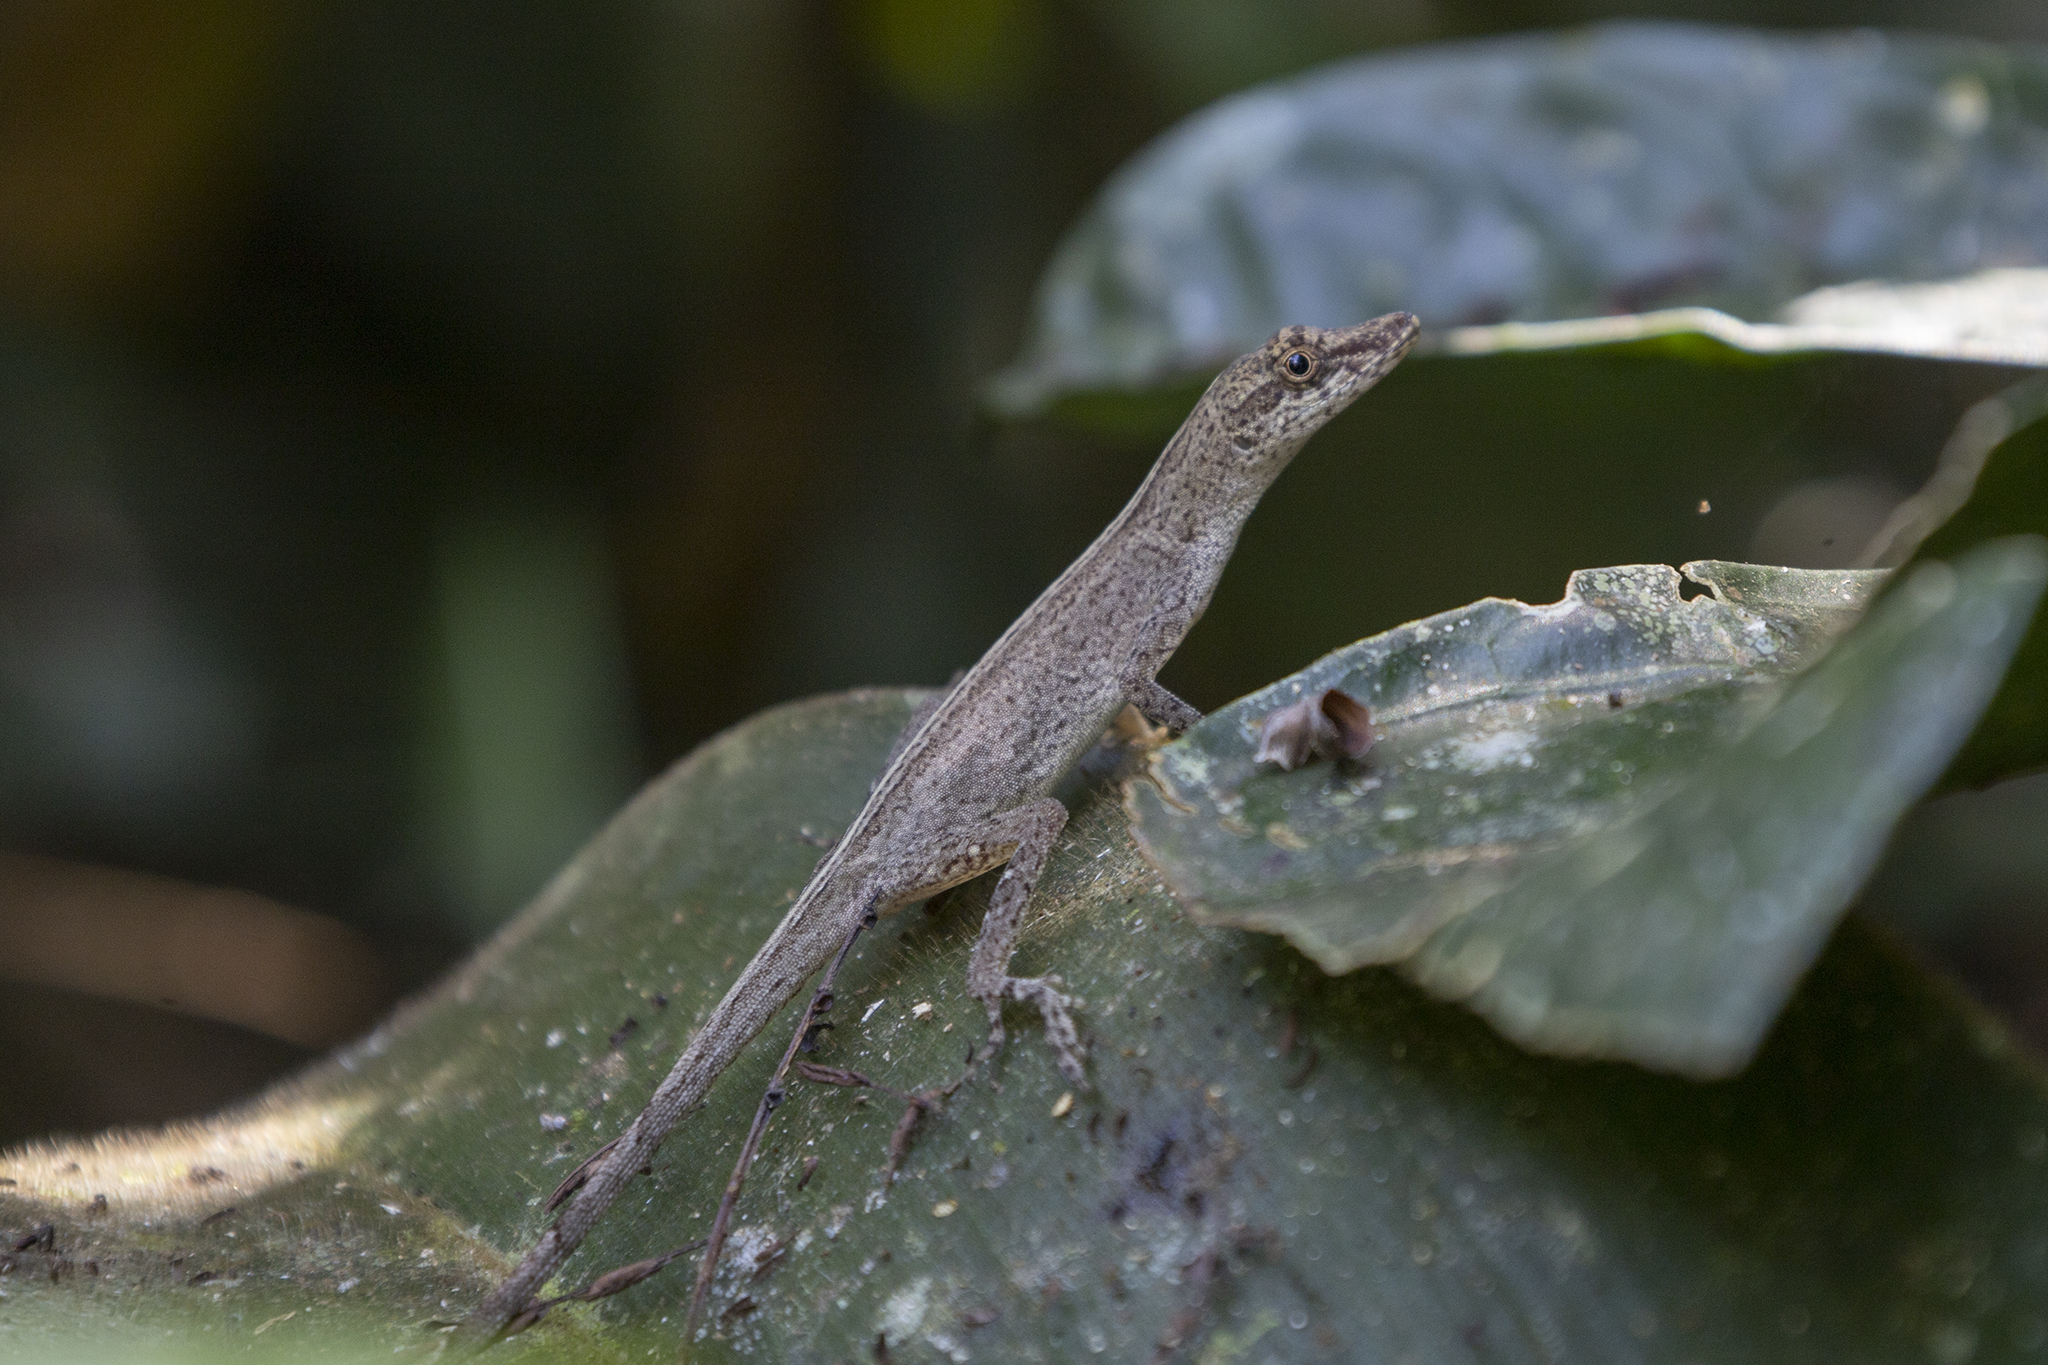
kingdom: Animalia
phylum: Chordata
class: Squamata
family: Dactyloidae
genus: Anolis
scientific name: Anolis fuscoauratus
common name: Brown-eared anole
